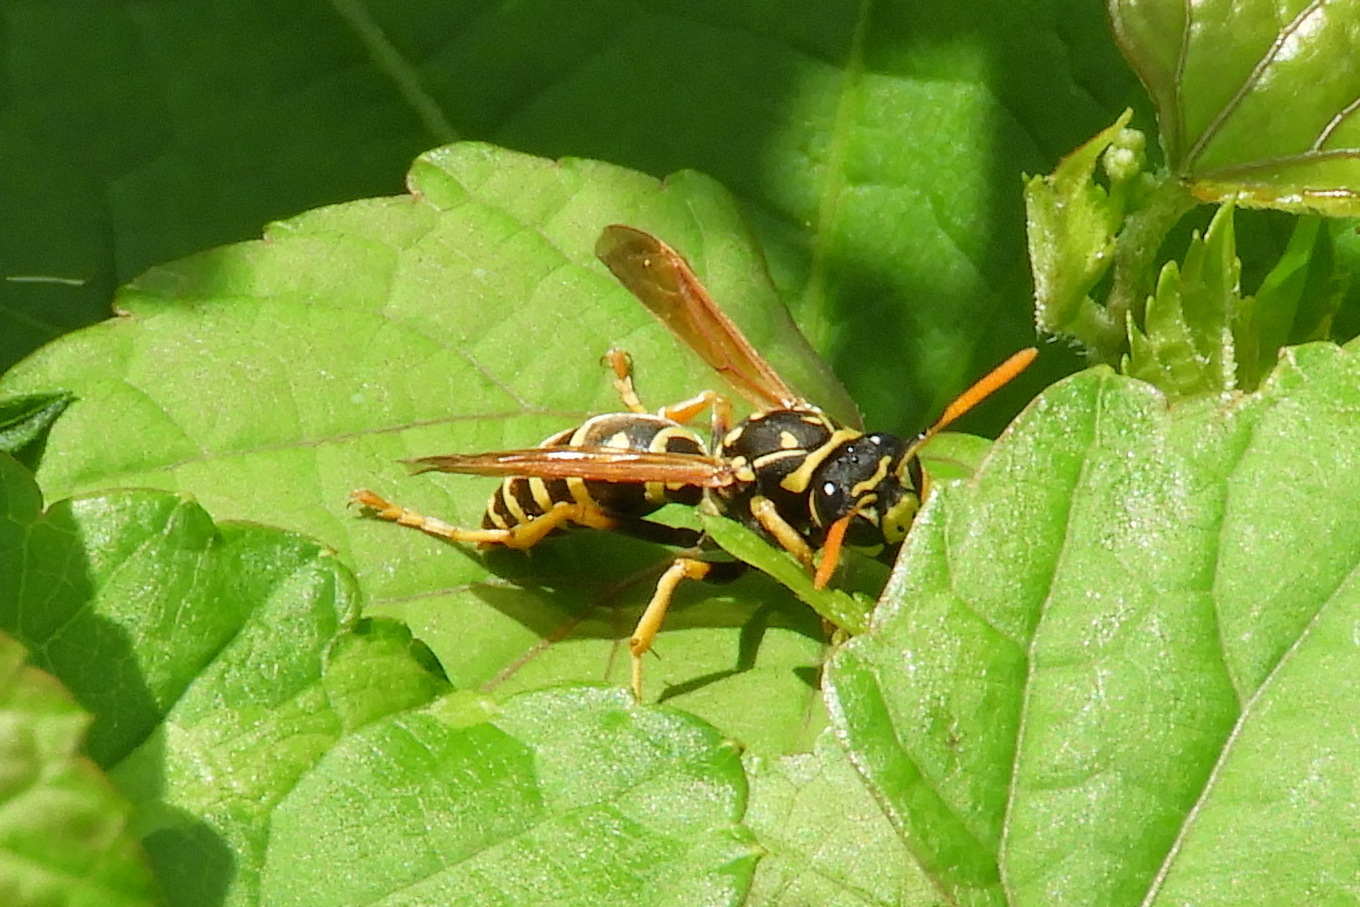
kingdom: Animalia
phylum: Arthropoda
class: Insecta
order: Hymenoptera
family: Eumenidae
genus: Polistes
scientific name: Polistes dominula
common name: Paper wasp
